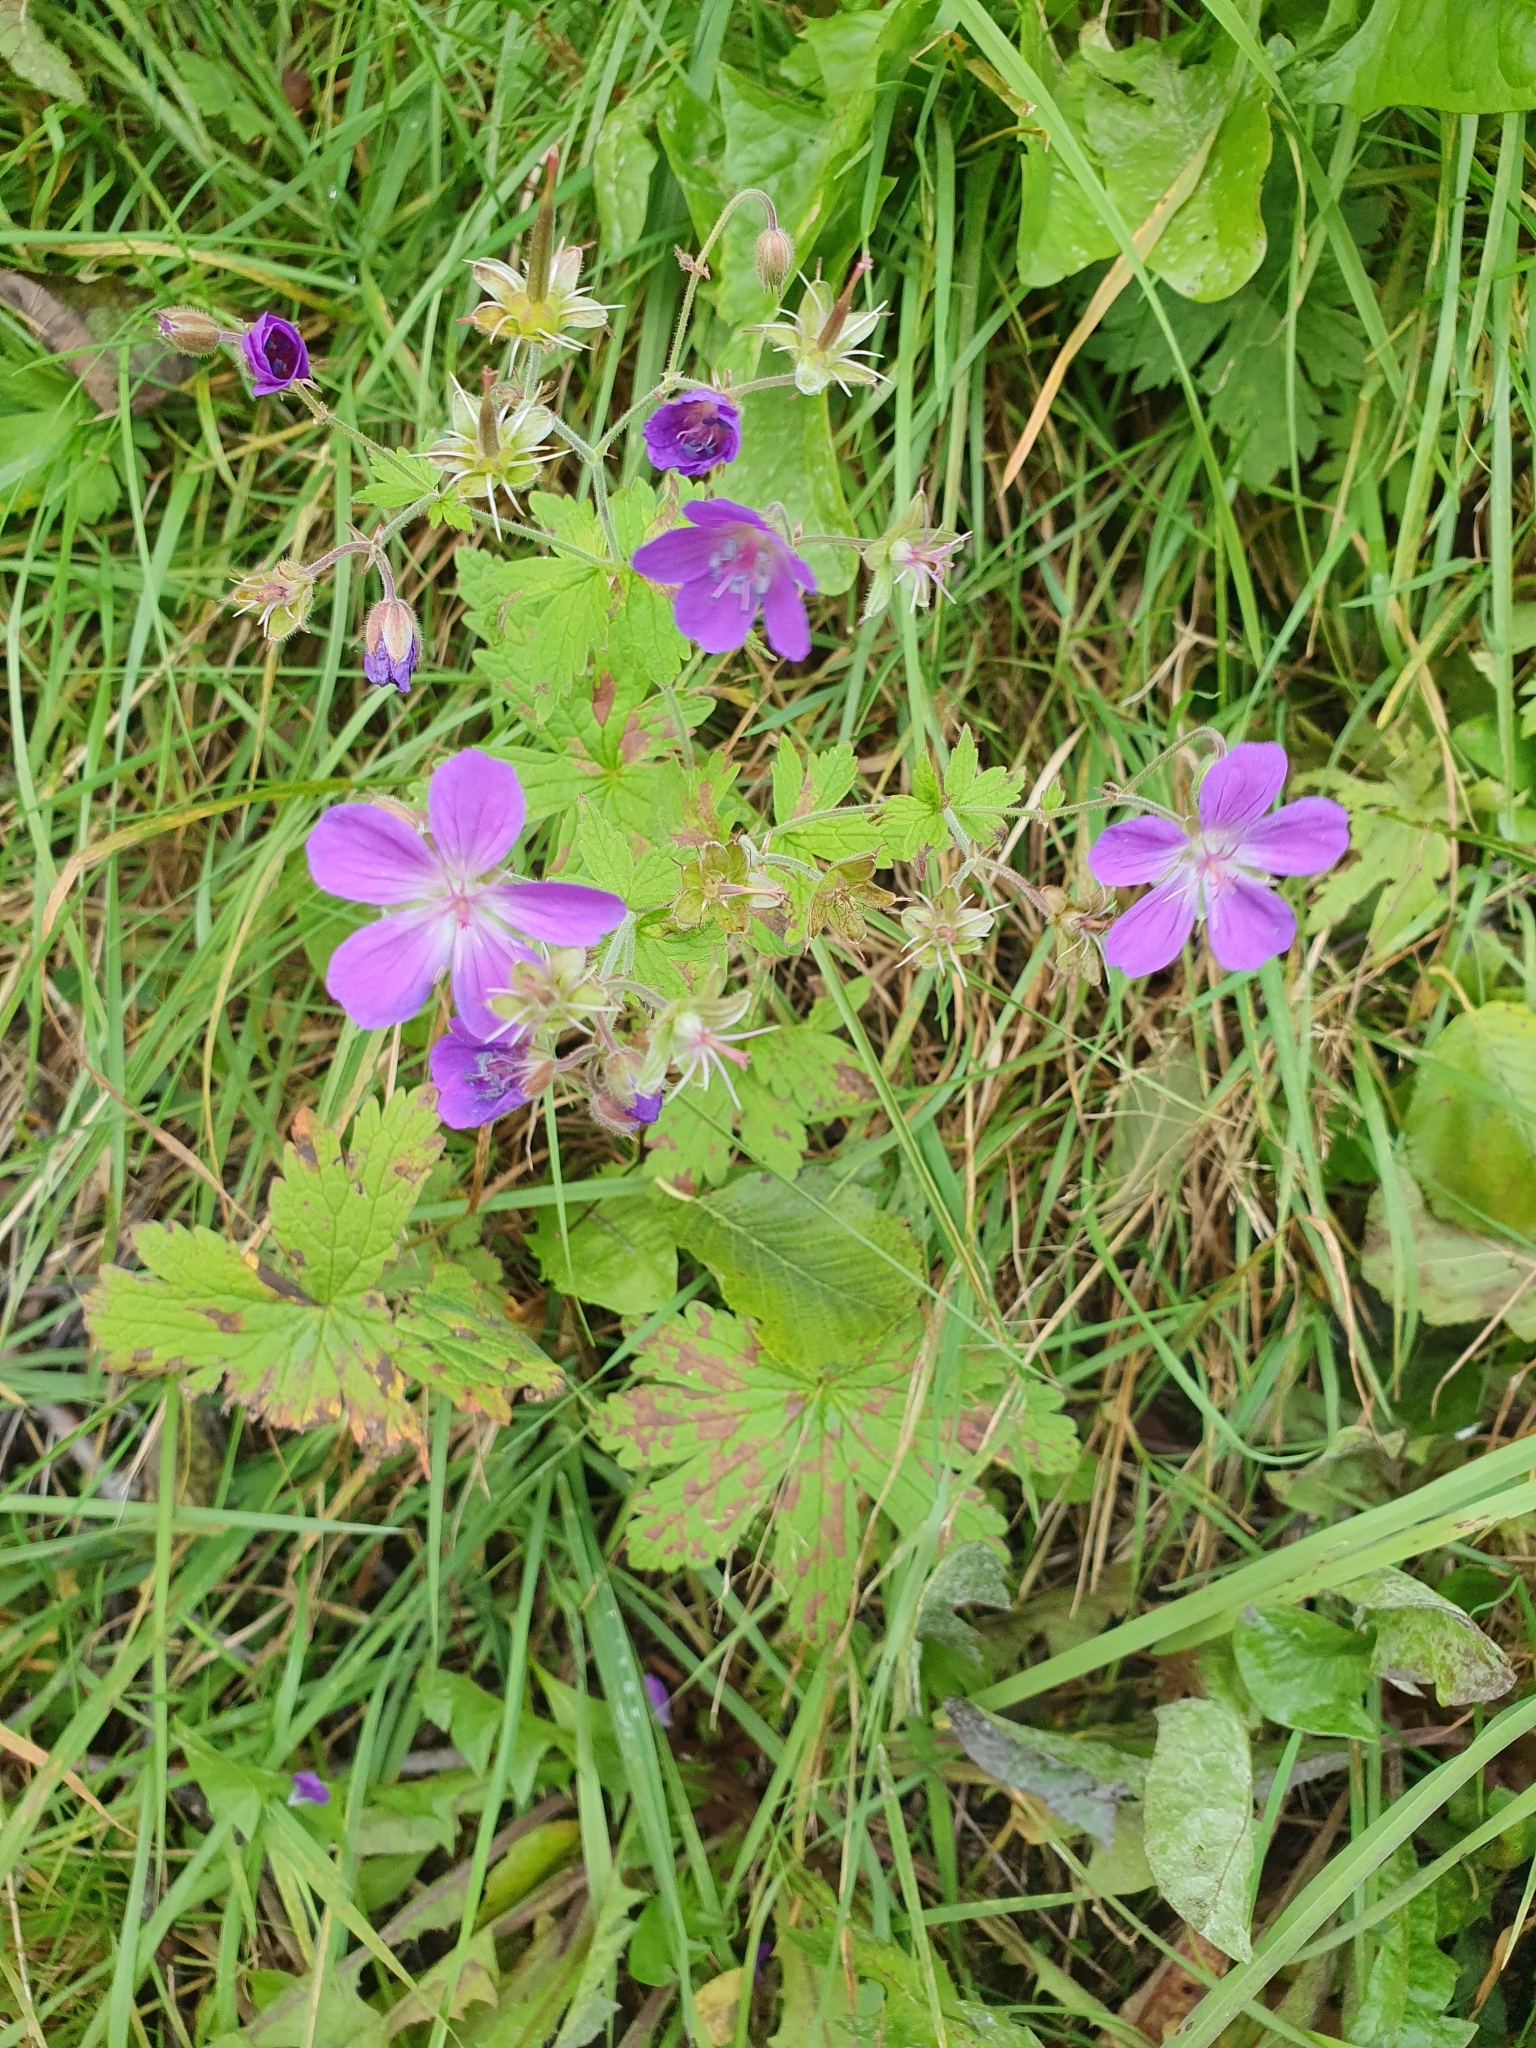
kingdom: Plantae
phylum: Tracheophyta
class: Magnoliopsida
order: Geraniales
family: Geraniaceae
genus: Geranium
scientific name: Geranium sylvaticum
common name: Wood crane's-bill
